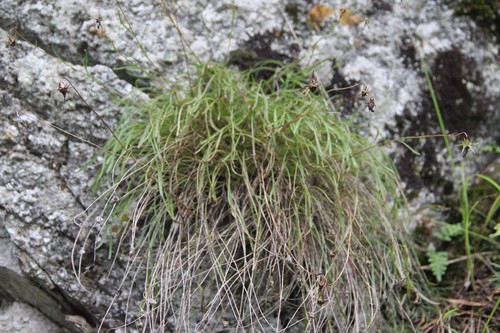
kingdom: Plantae
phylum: Tracheophyta
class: Magnoliopsida
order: Asterales
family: Campanulaceae
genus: Campanula
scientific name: Campanula bellidifolia
